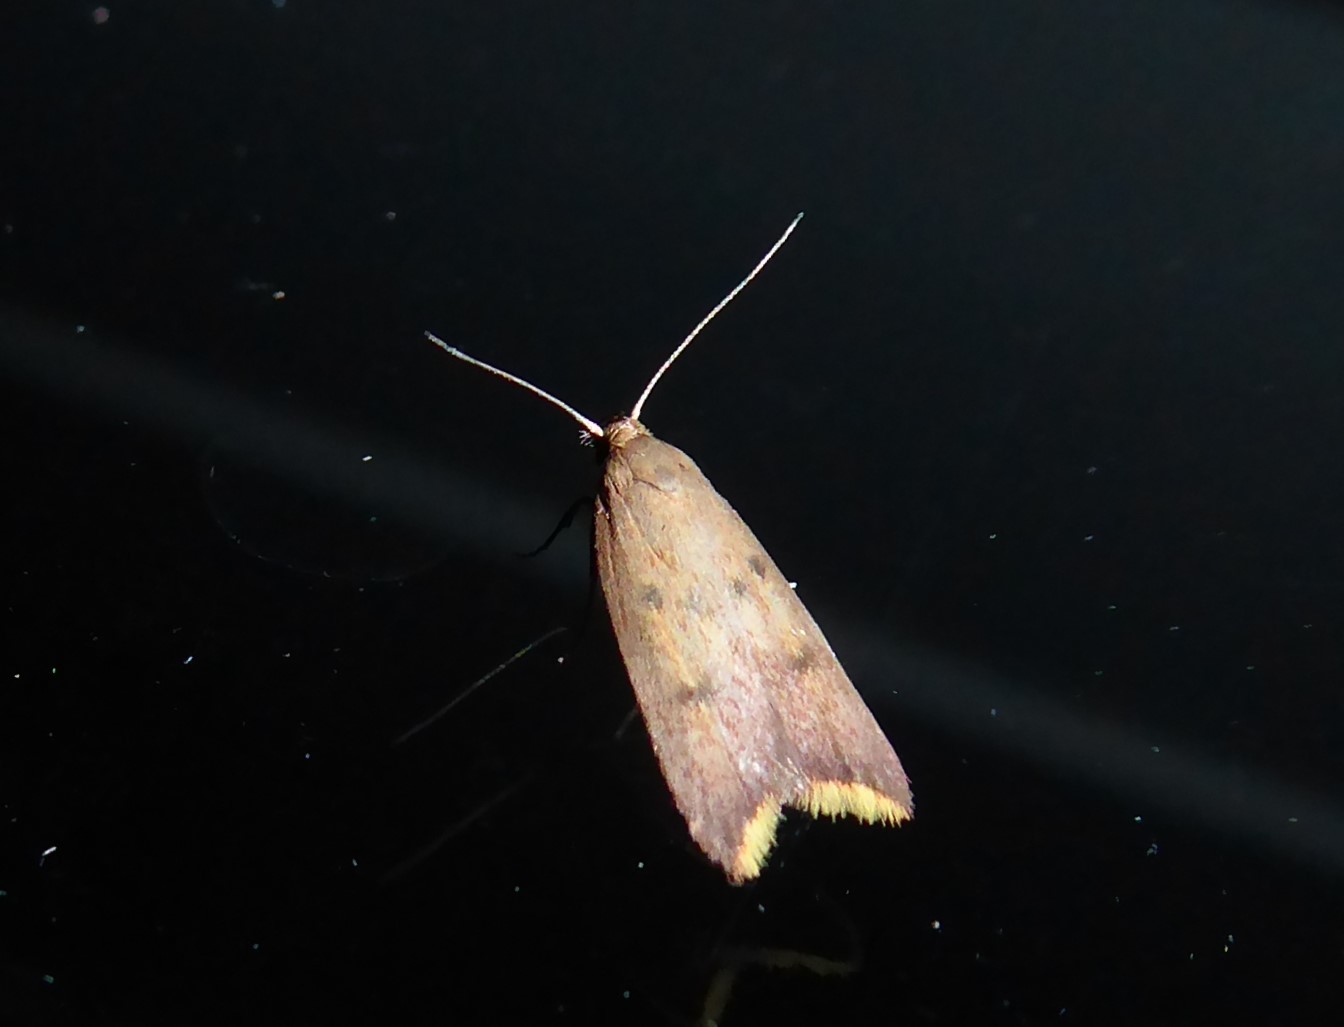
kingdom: Animalia
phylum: Arthropoda
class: Insecta
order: Lepidoptera
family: Oecophoridae
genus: Tachystola
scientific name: Tachystola acroxantha
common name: Ruddy streak
